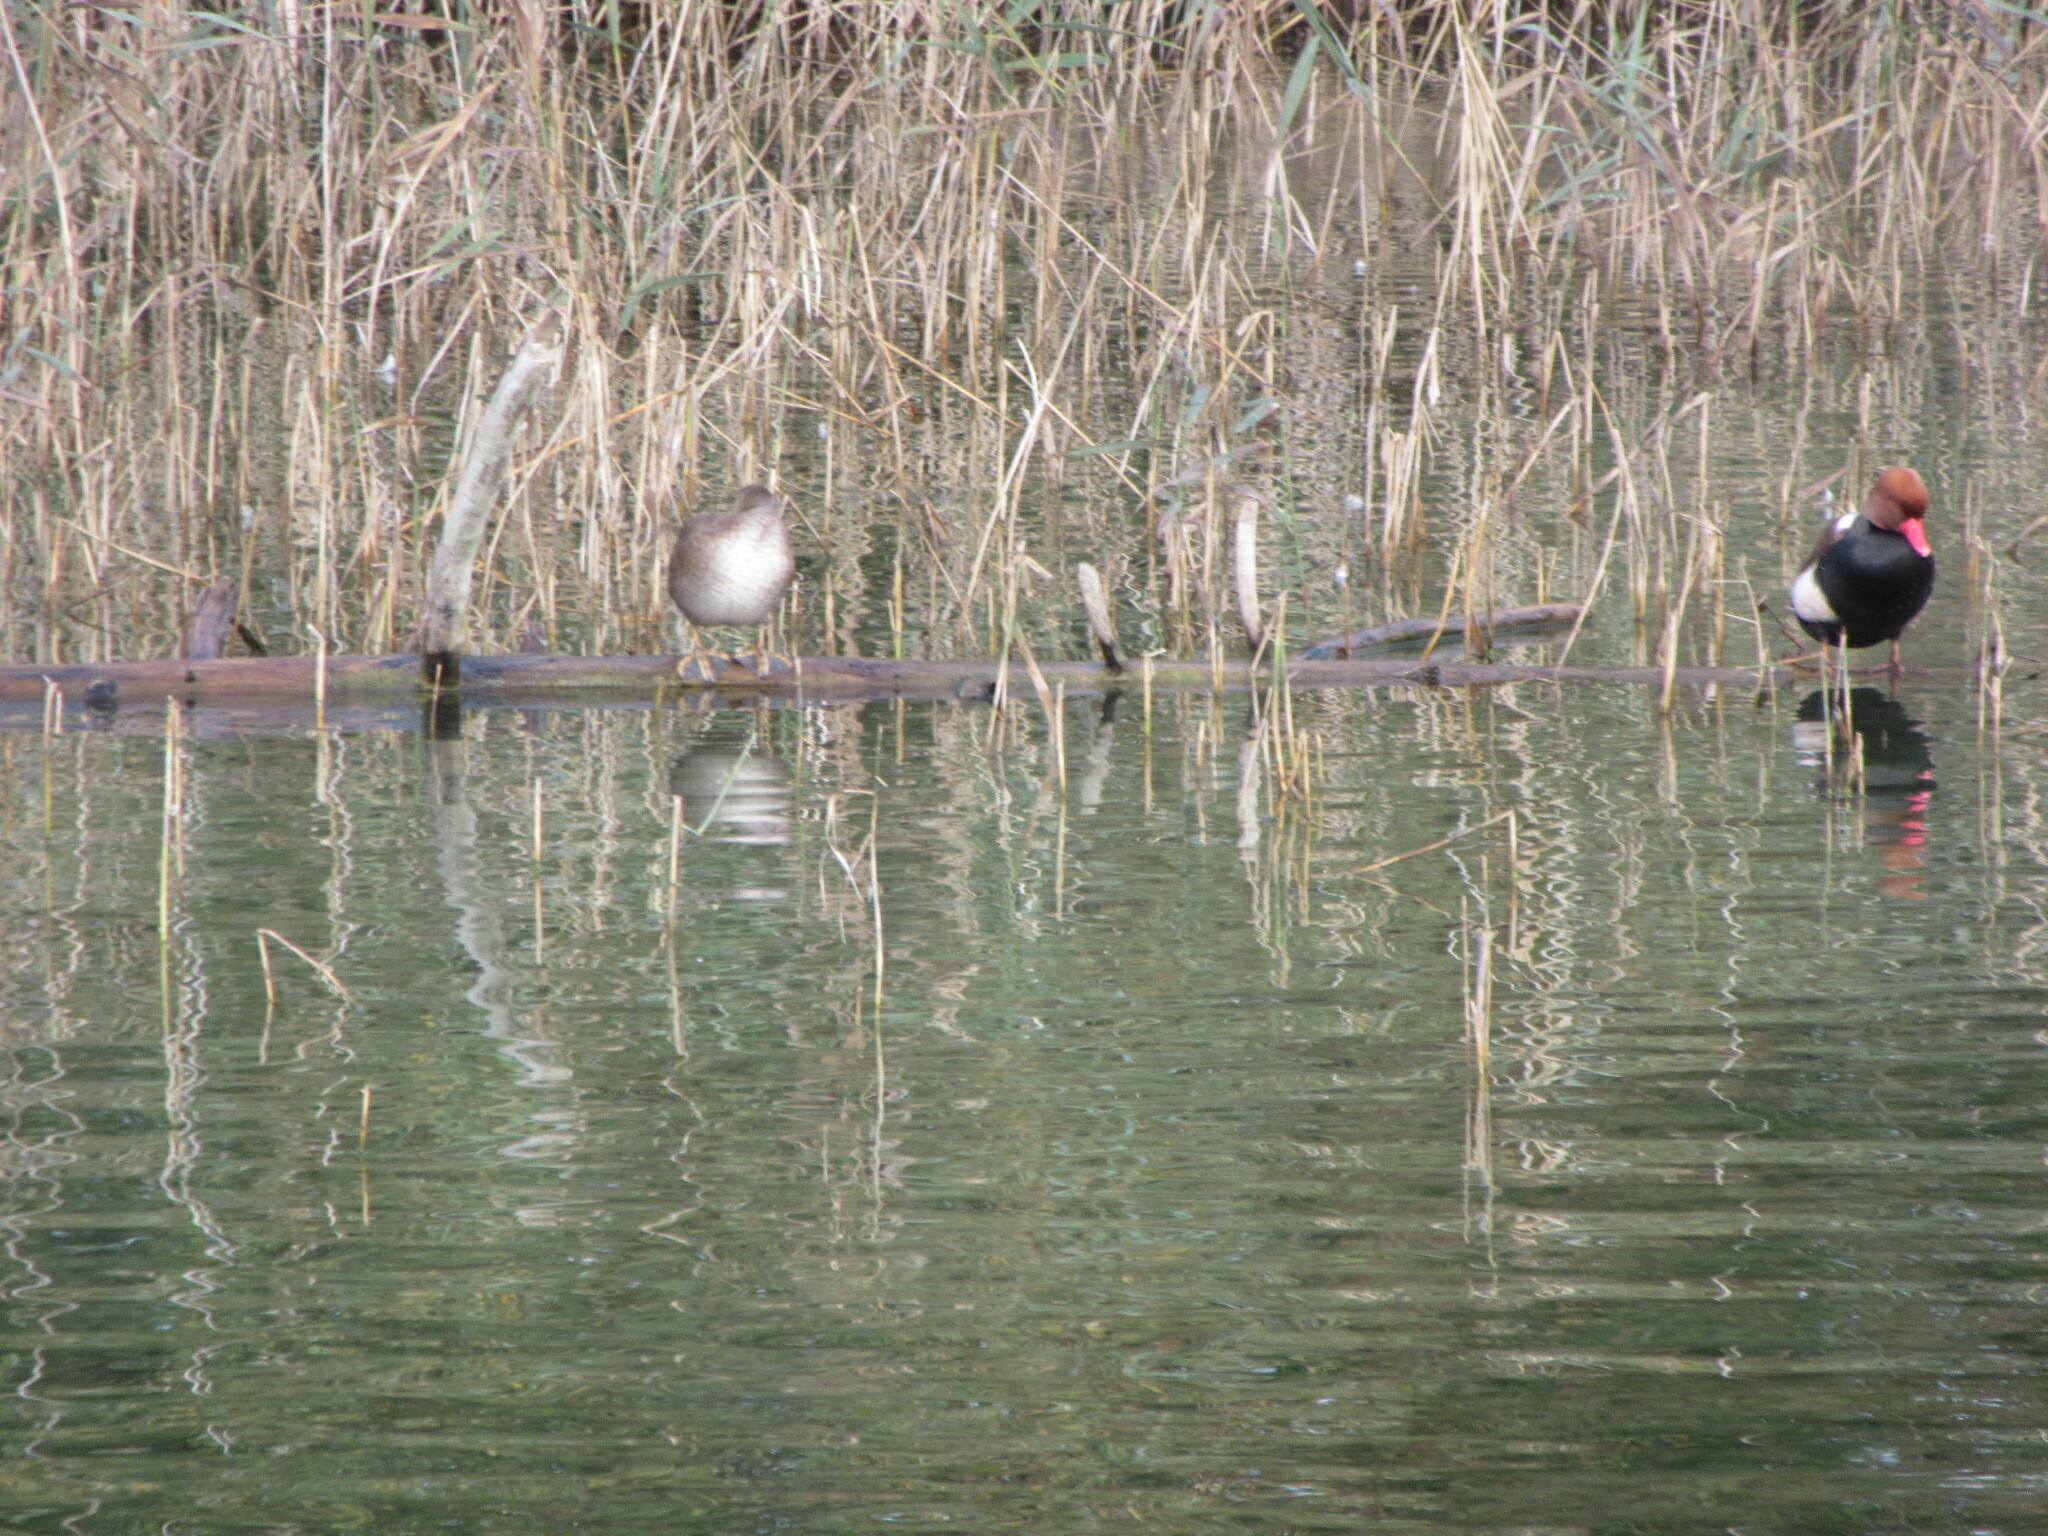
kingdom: Animalia
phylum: Chordata
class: Aves
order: Anseriformes
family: Anatidae
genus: Netta
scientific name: Netta rufina
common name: Red-crested pochard
